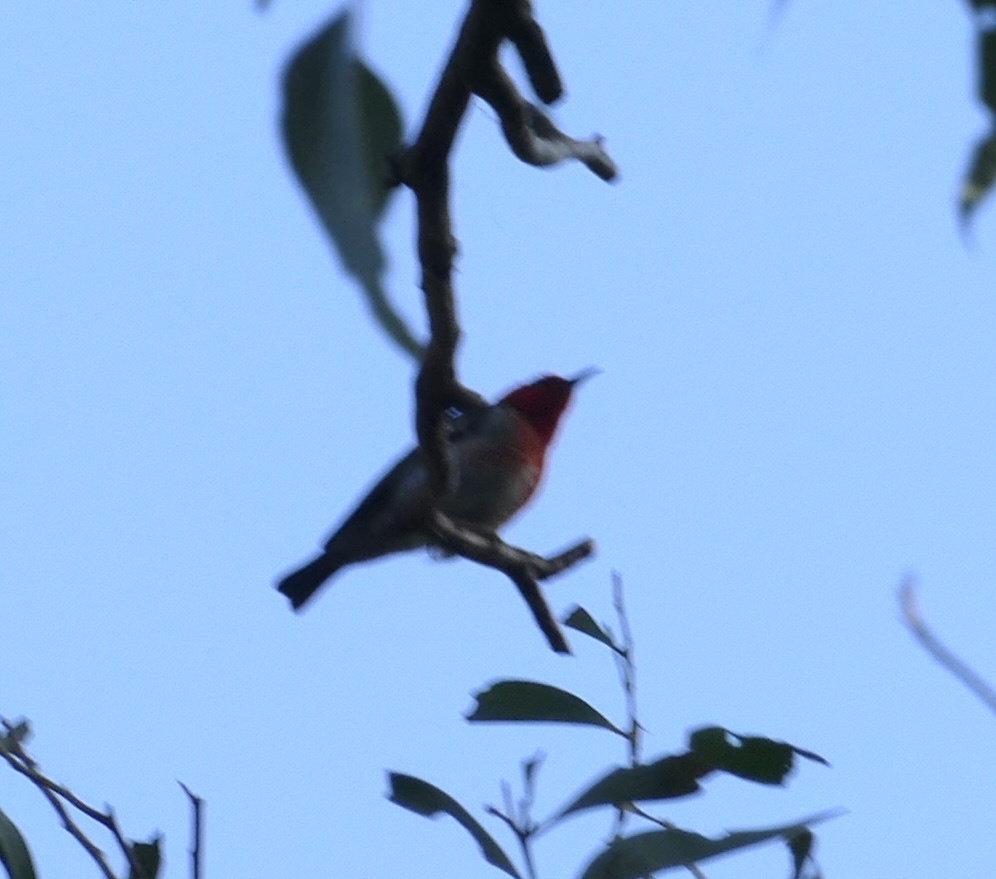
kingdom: Animalia
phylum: Chordata
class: Aves
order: Passeriformes
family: Meliphagidae
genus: Myzomela
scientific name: Myzomela sanguinolenta
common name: Scarlet myzomela
